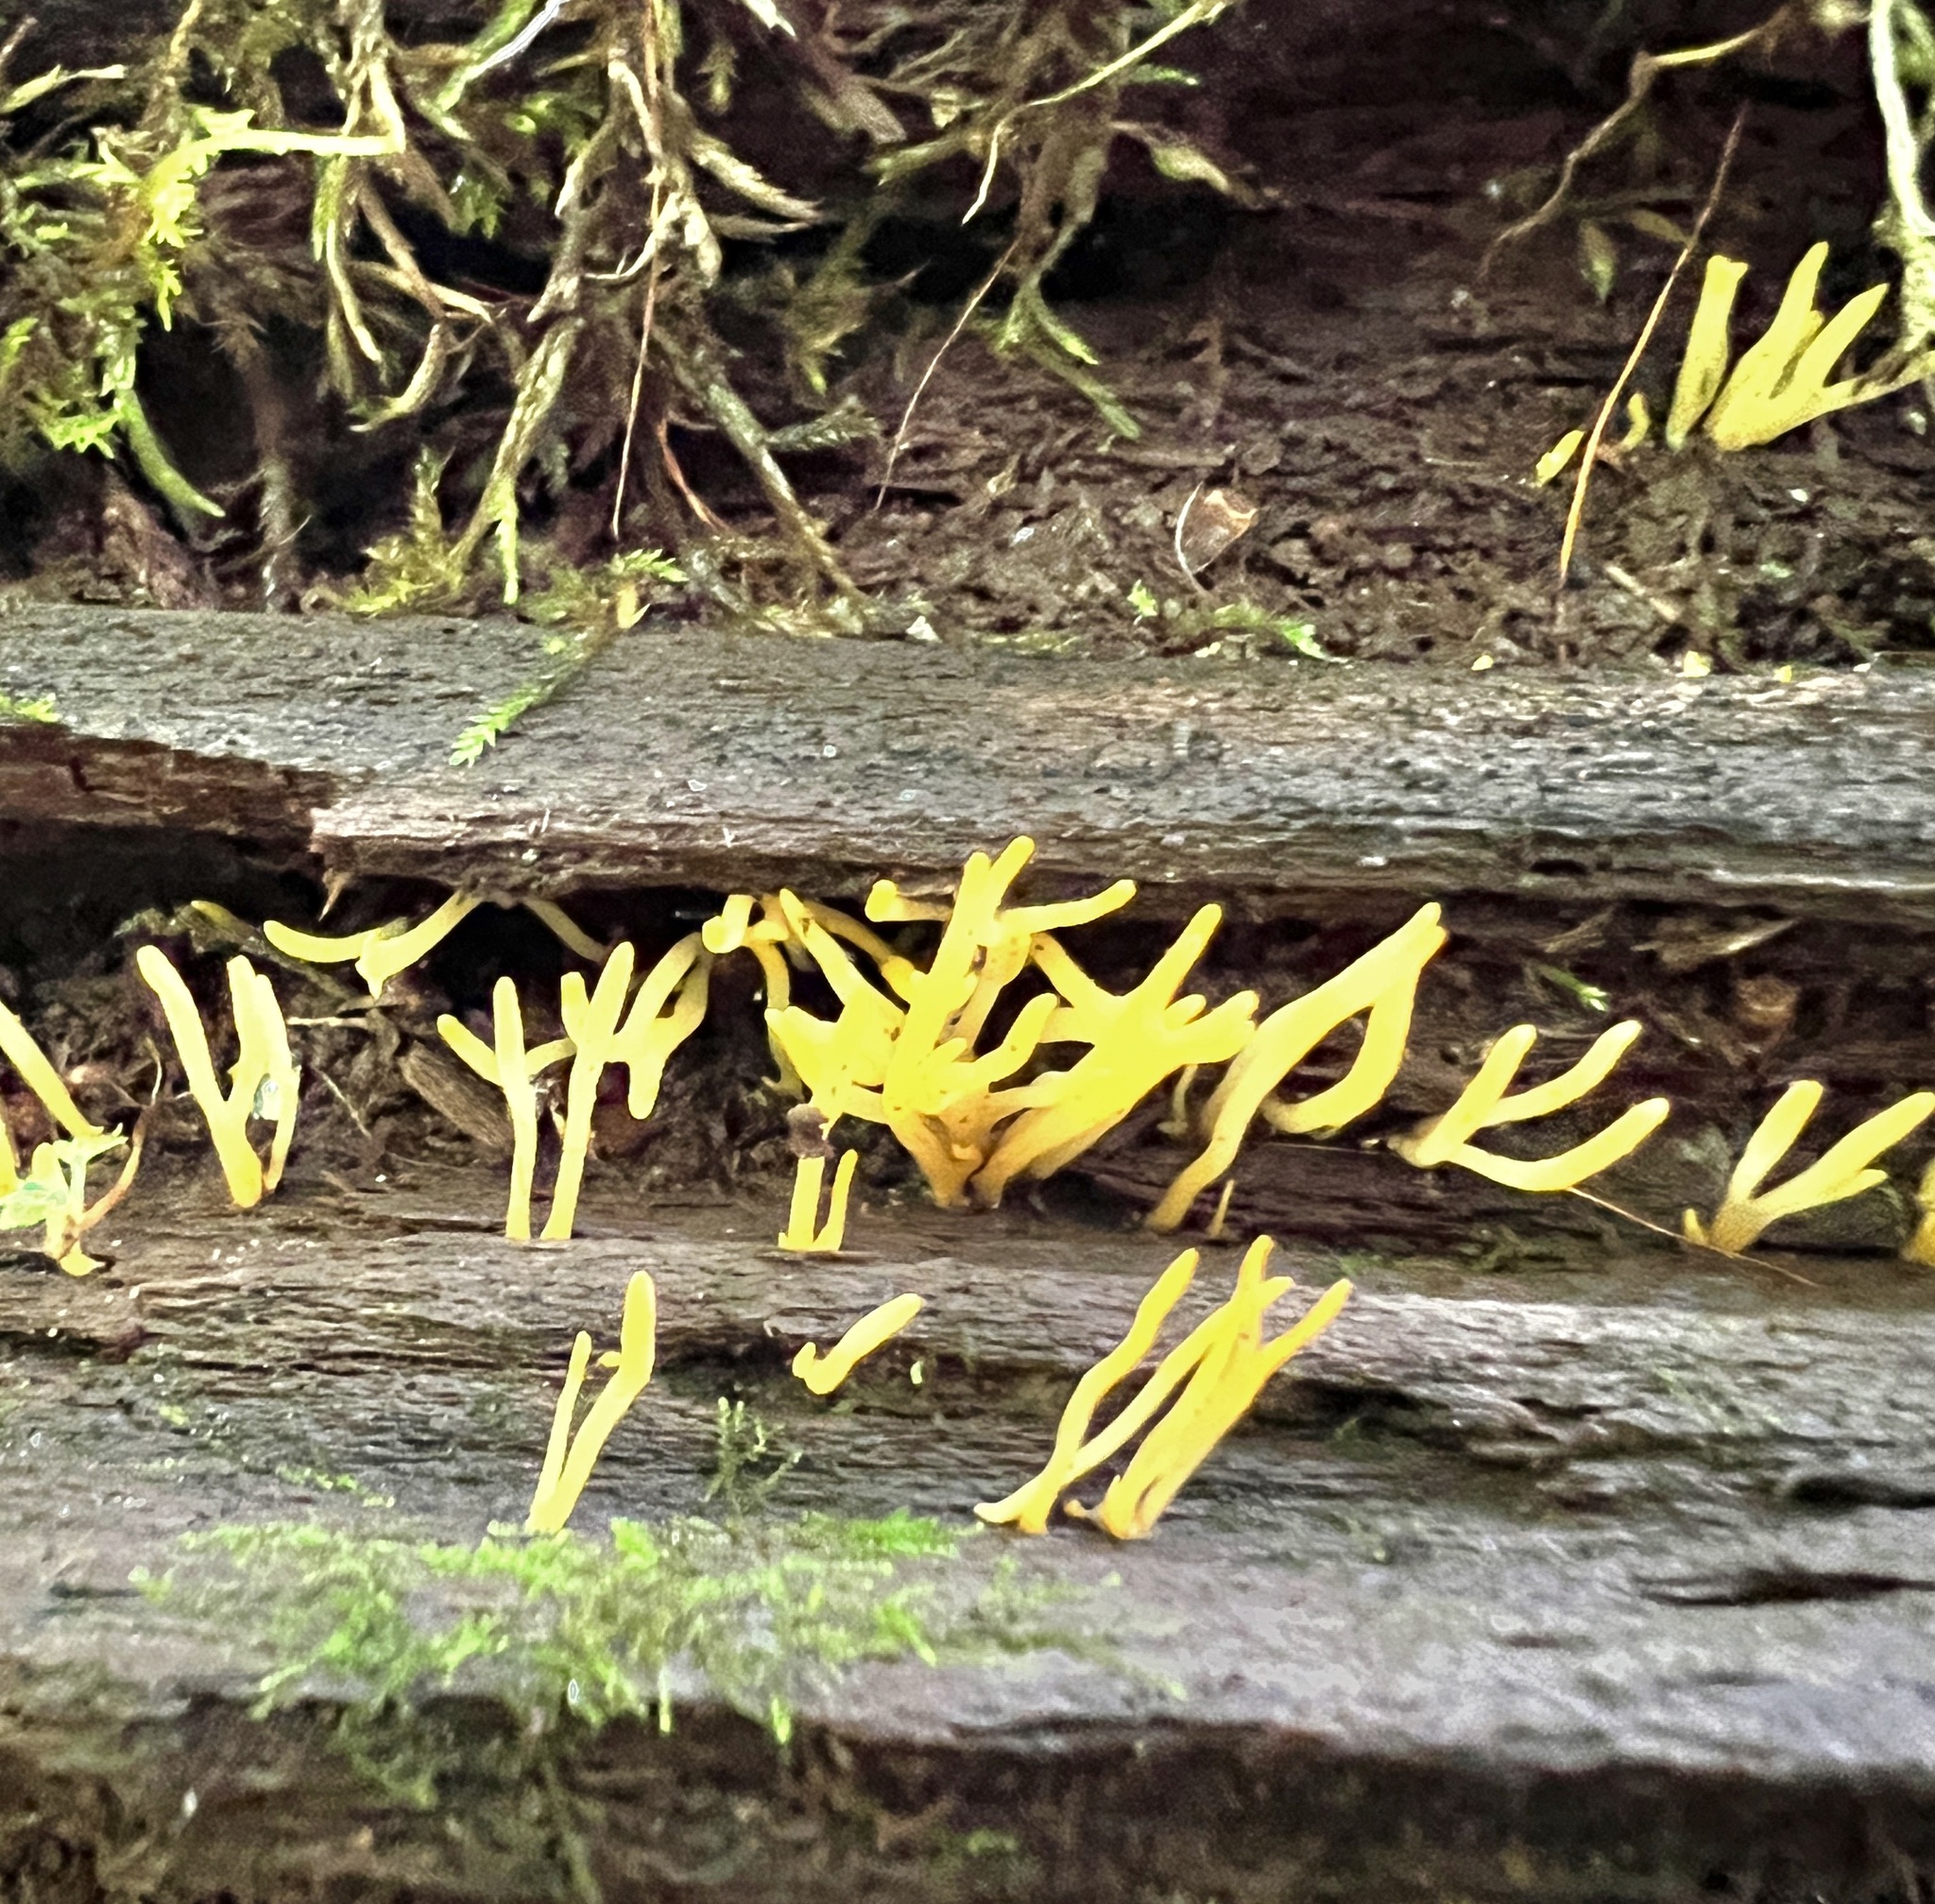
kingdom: Fungi
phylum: Basidiomycota
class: Dacrymycetes
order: Dacrymycetales
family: Dacrymycetaceae
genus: Calocera
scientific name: Calocera cornea
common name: Small stagshorn
